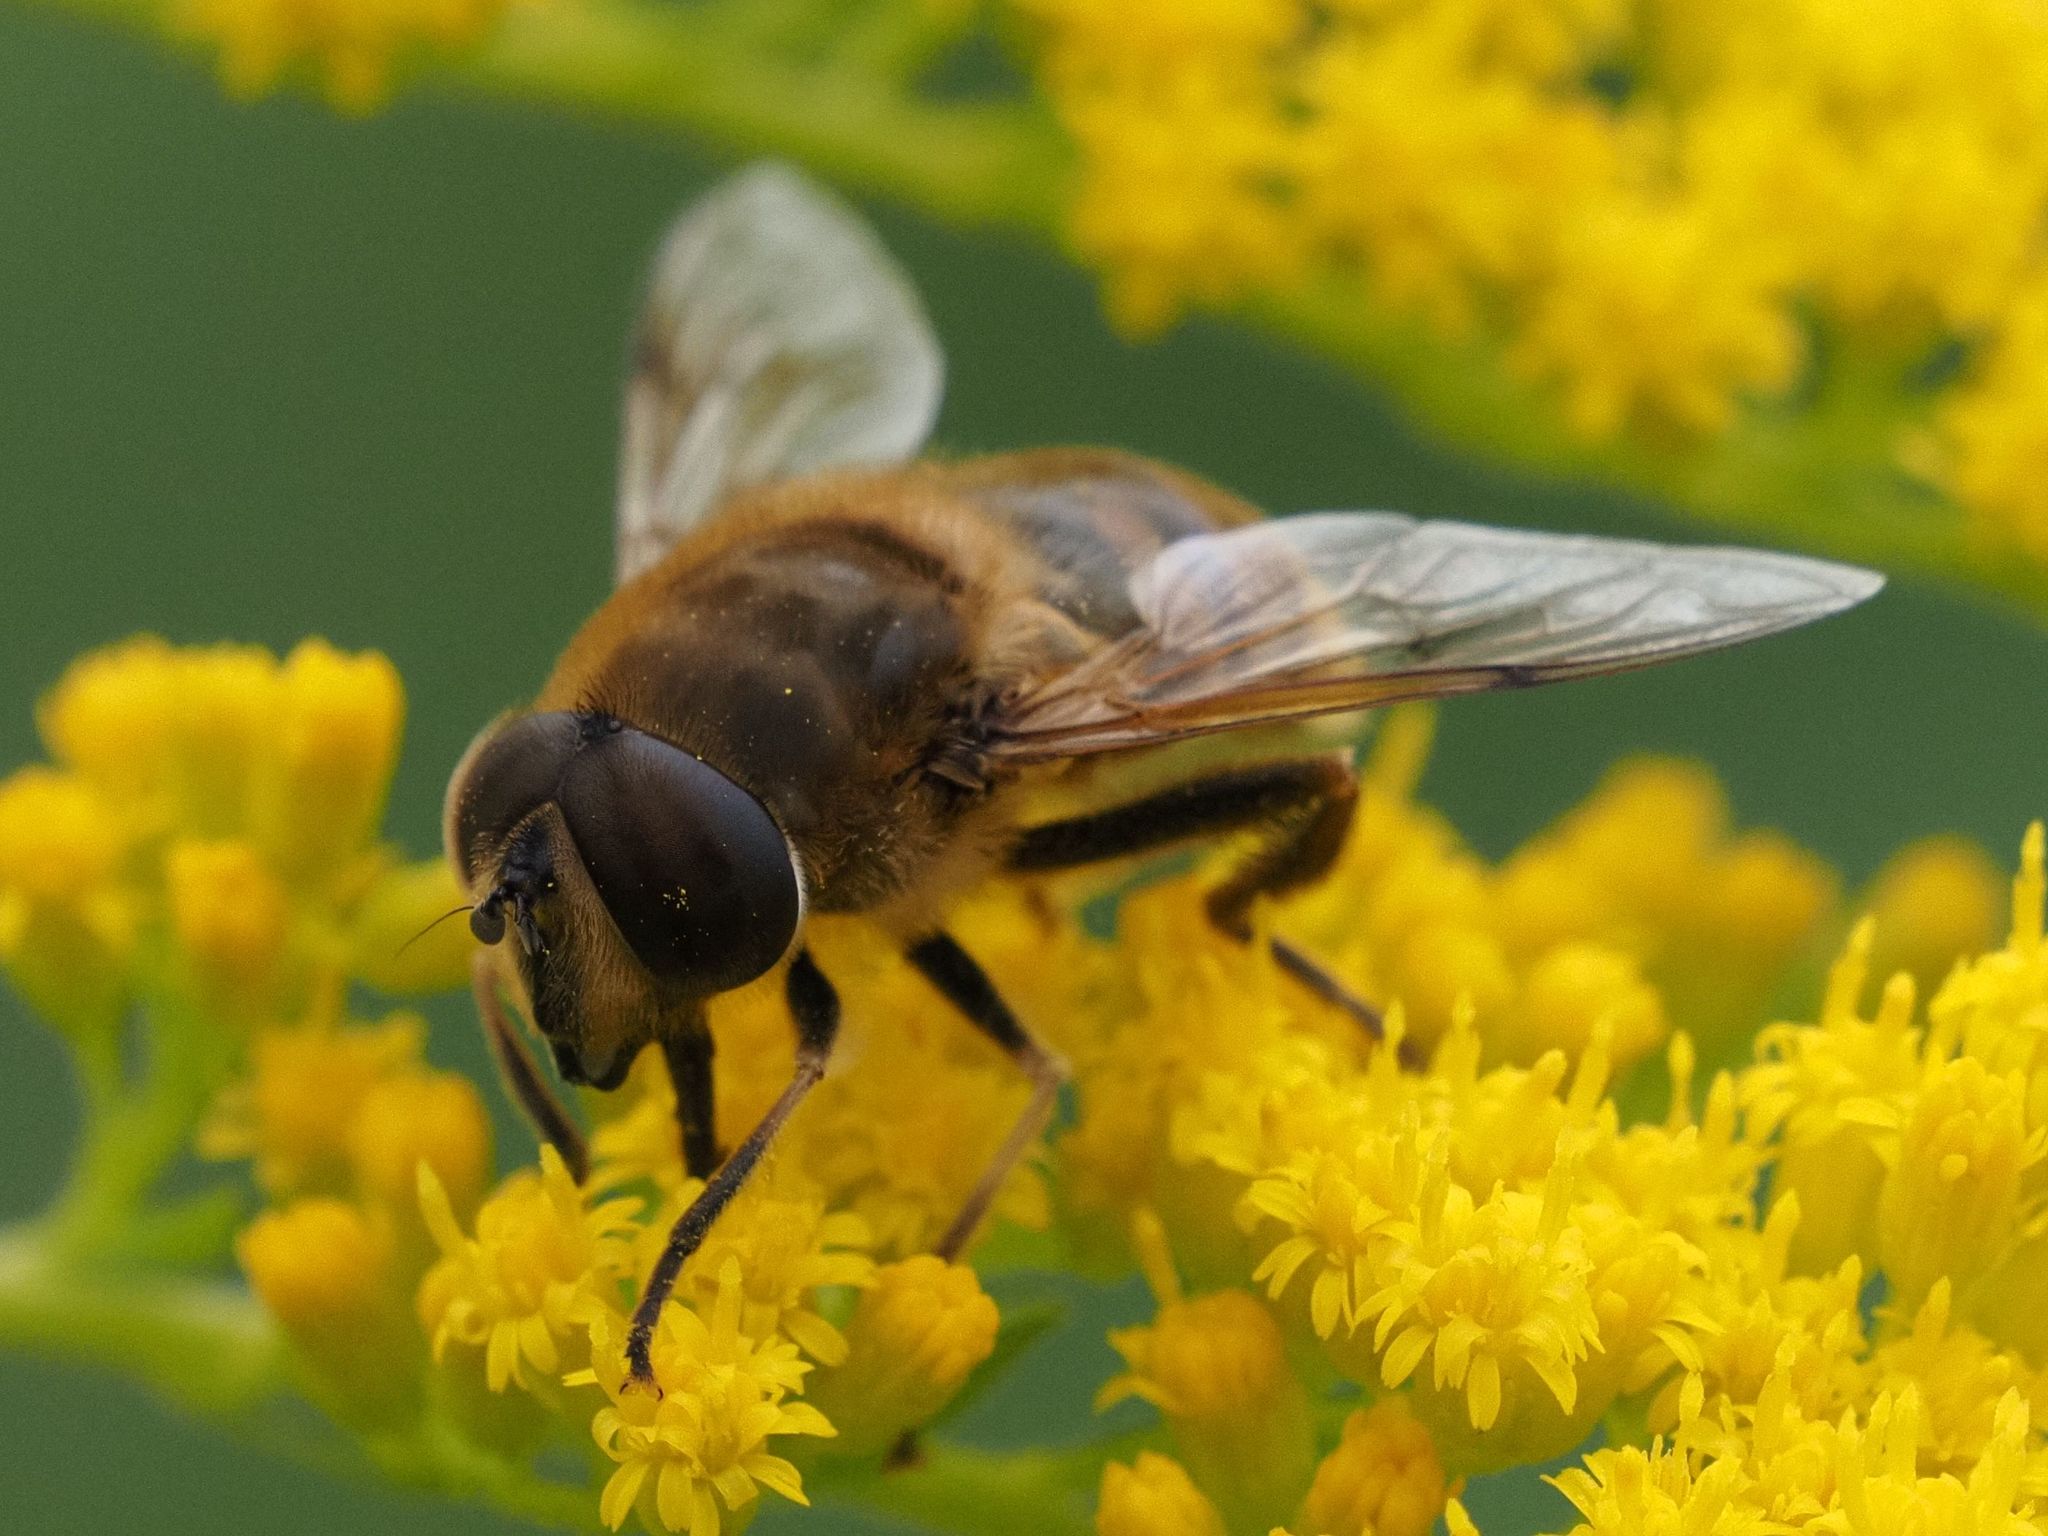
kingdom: Animalia
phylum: Arthropoda
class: Insecta
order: Diptera
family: Syrphidae
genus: Eristalis
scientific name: Eristalis tenax
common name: Drone fly
